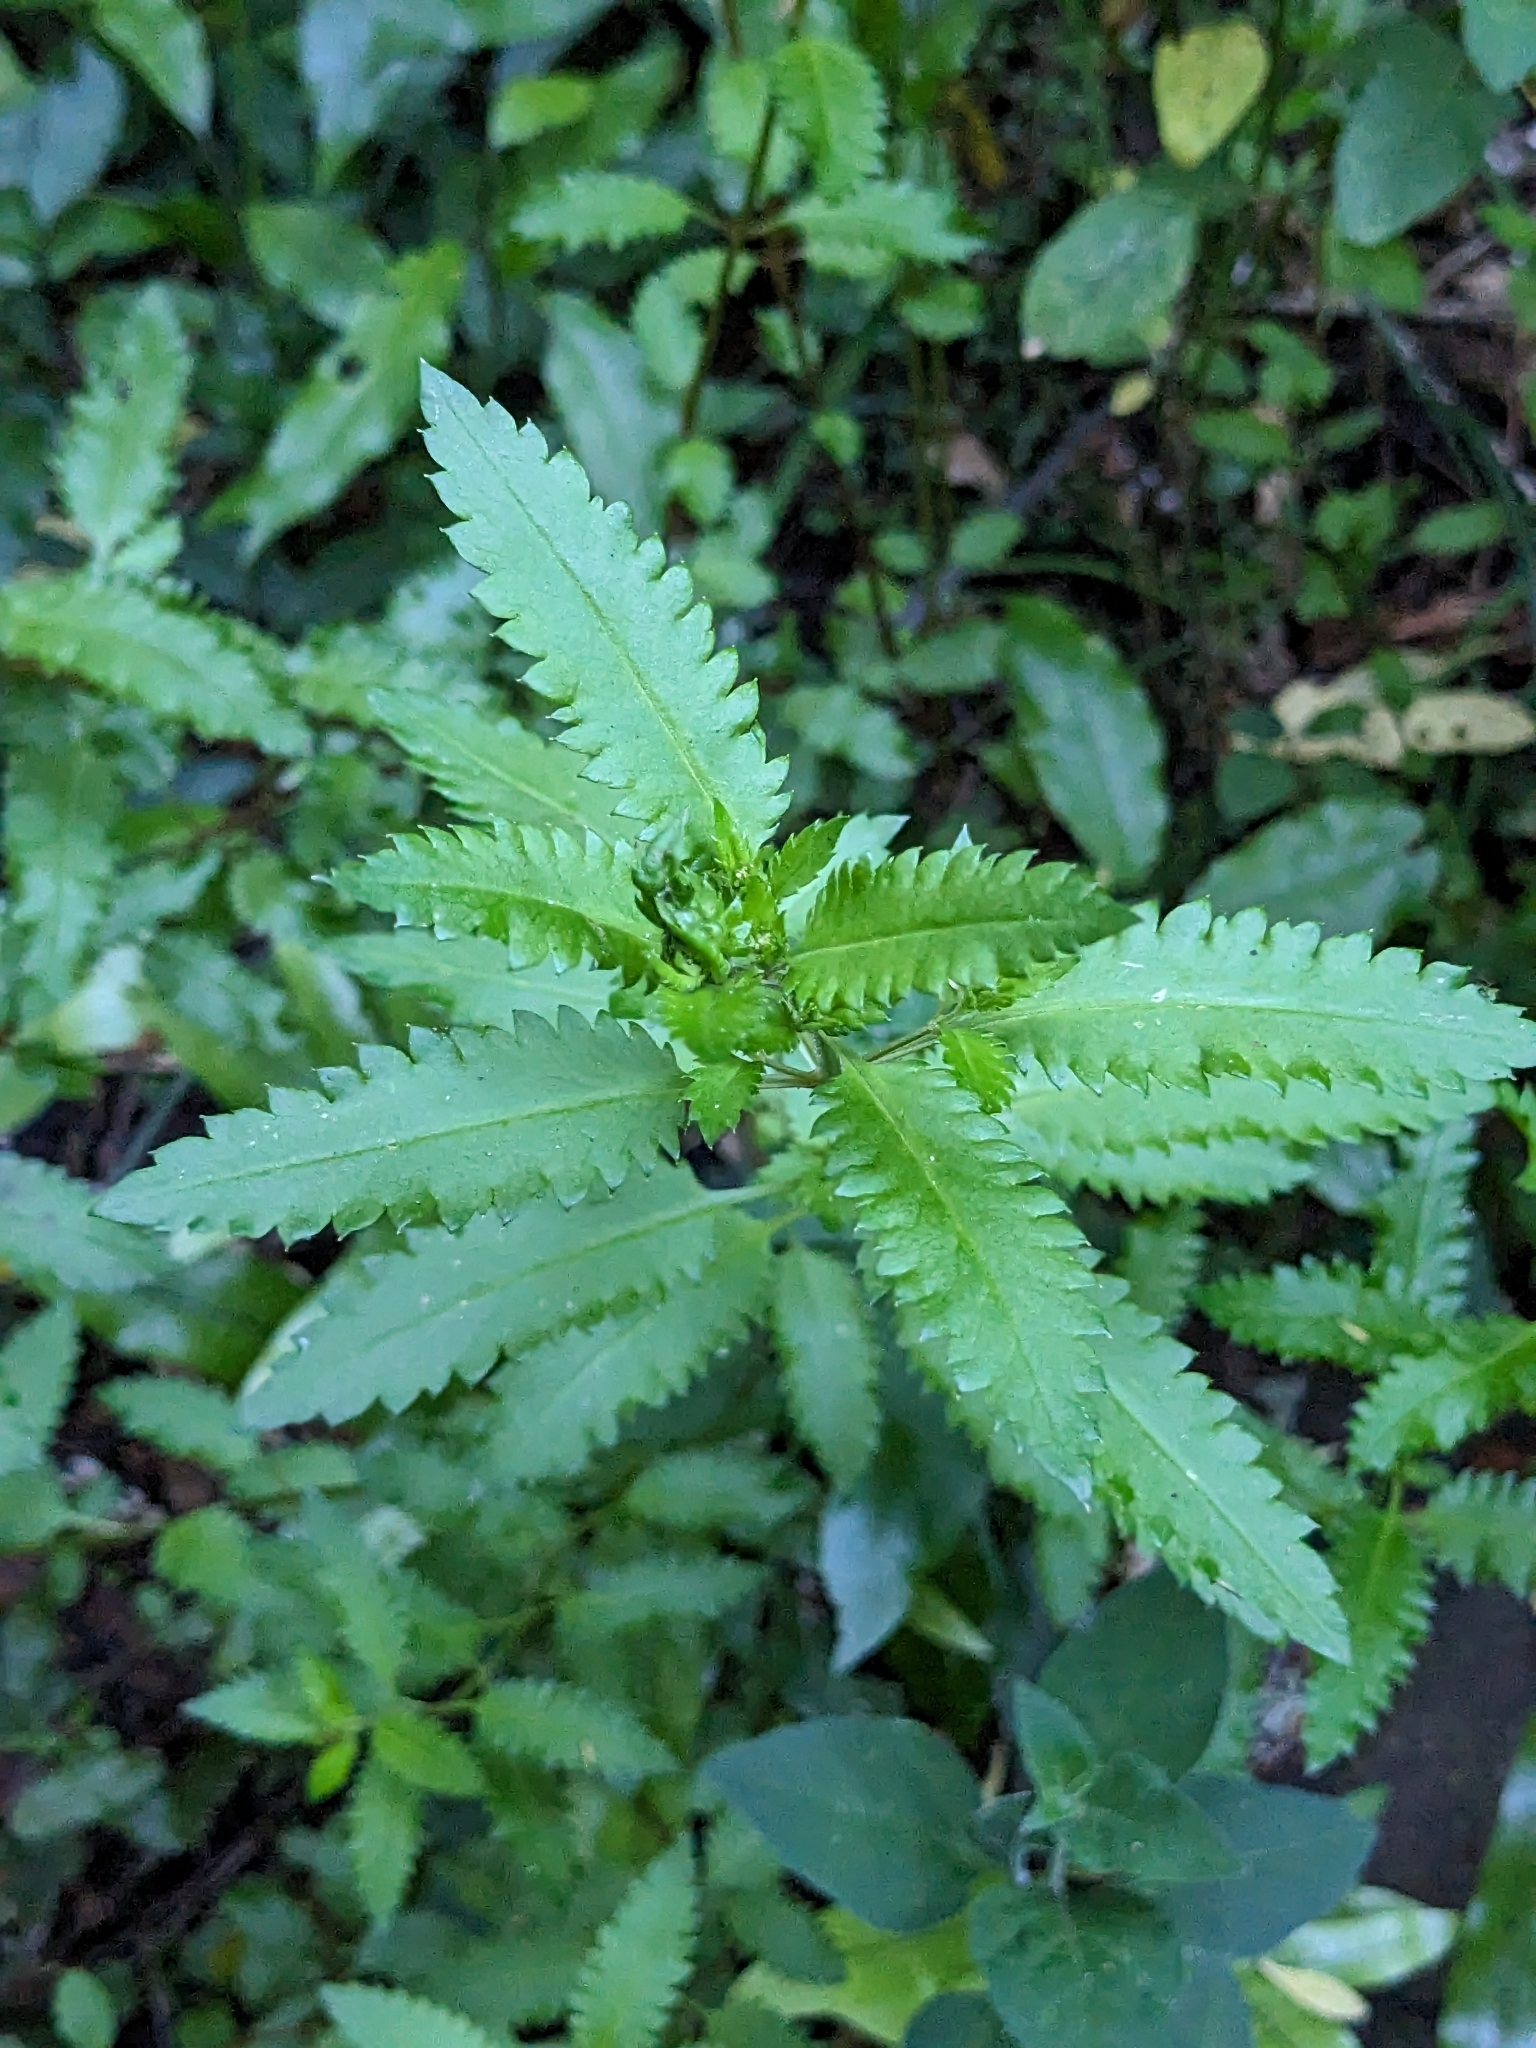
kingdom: Plantae
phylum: Tracheophyta
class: Magnoliopsida
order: Saxifragales
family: Haloragaceae
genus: Haloragis
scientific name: Haloragis erecta
